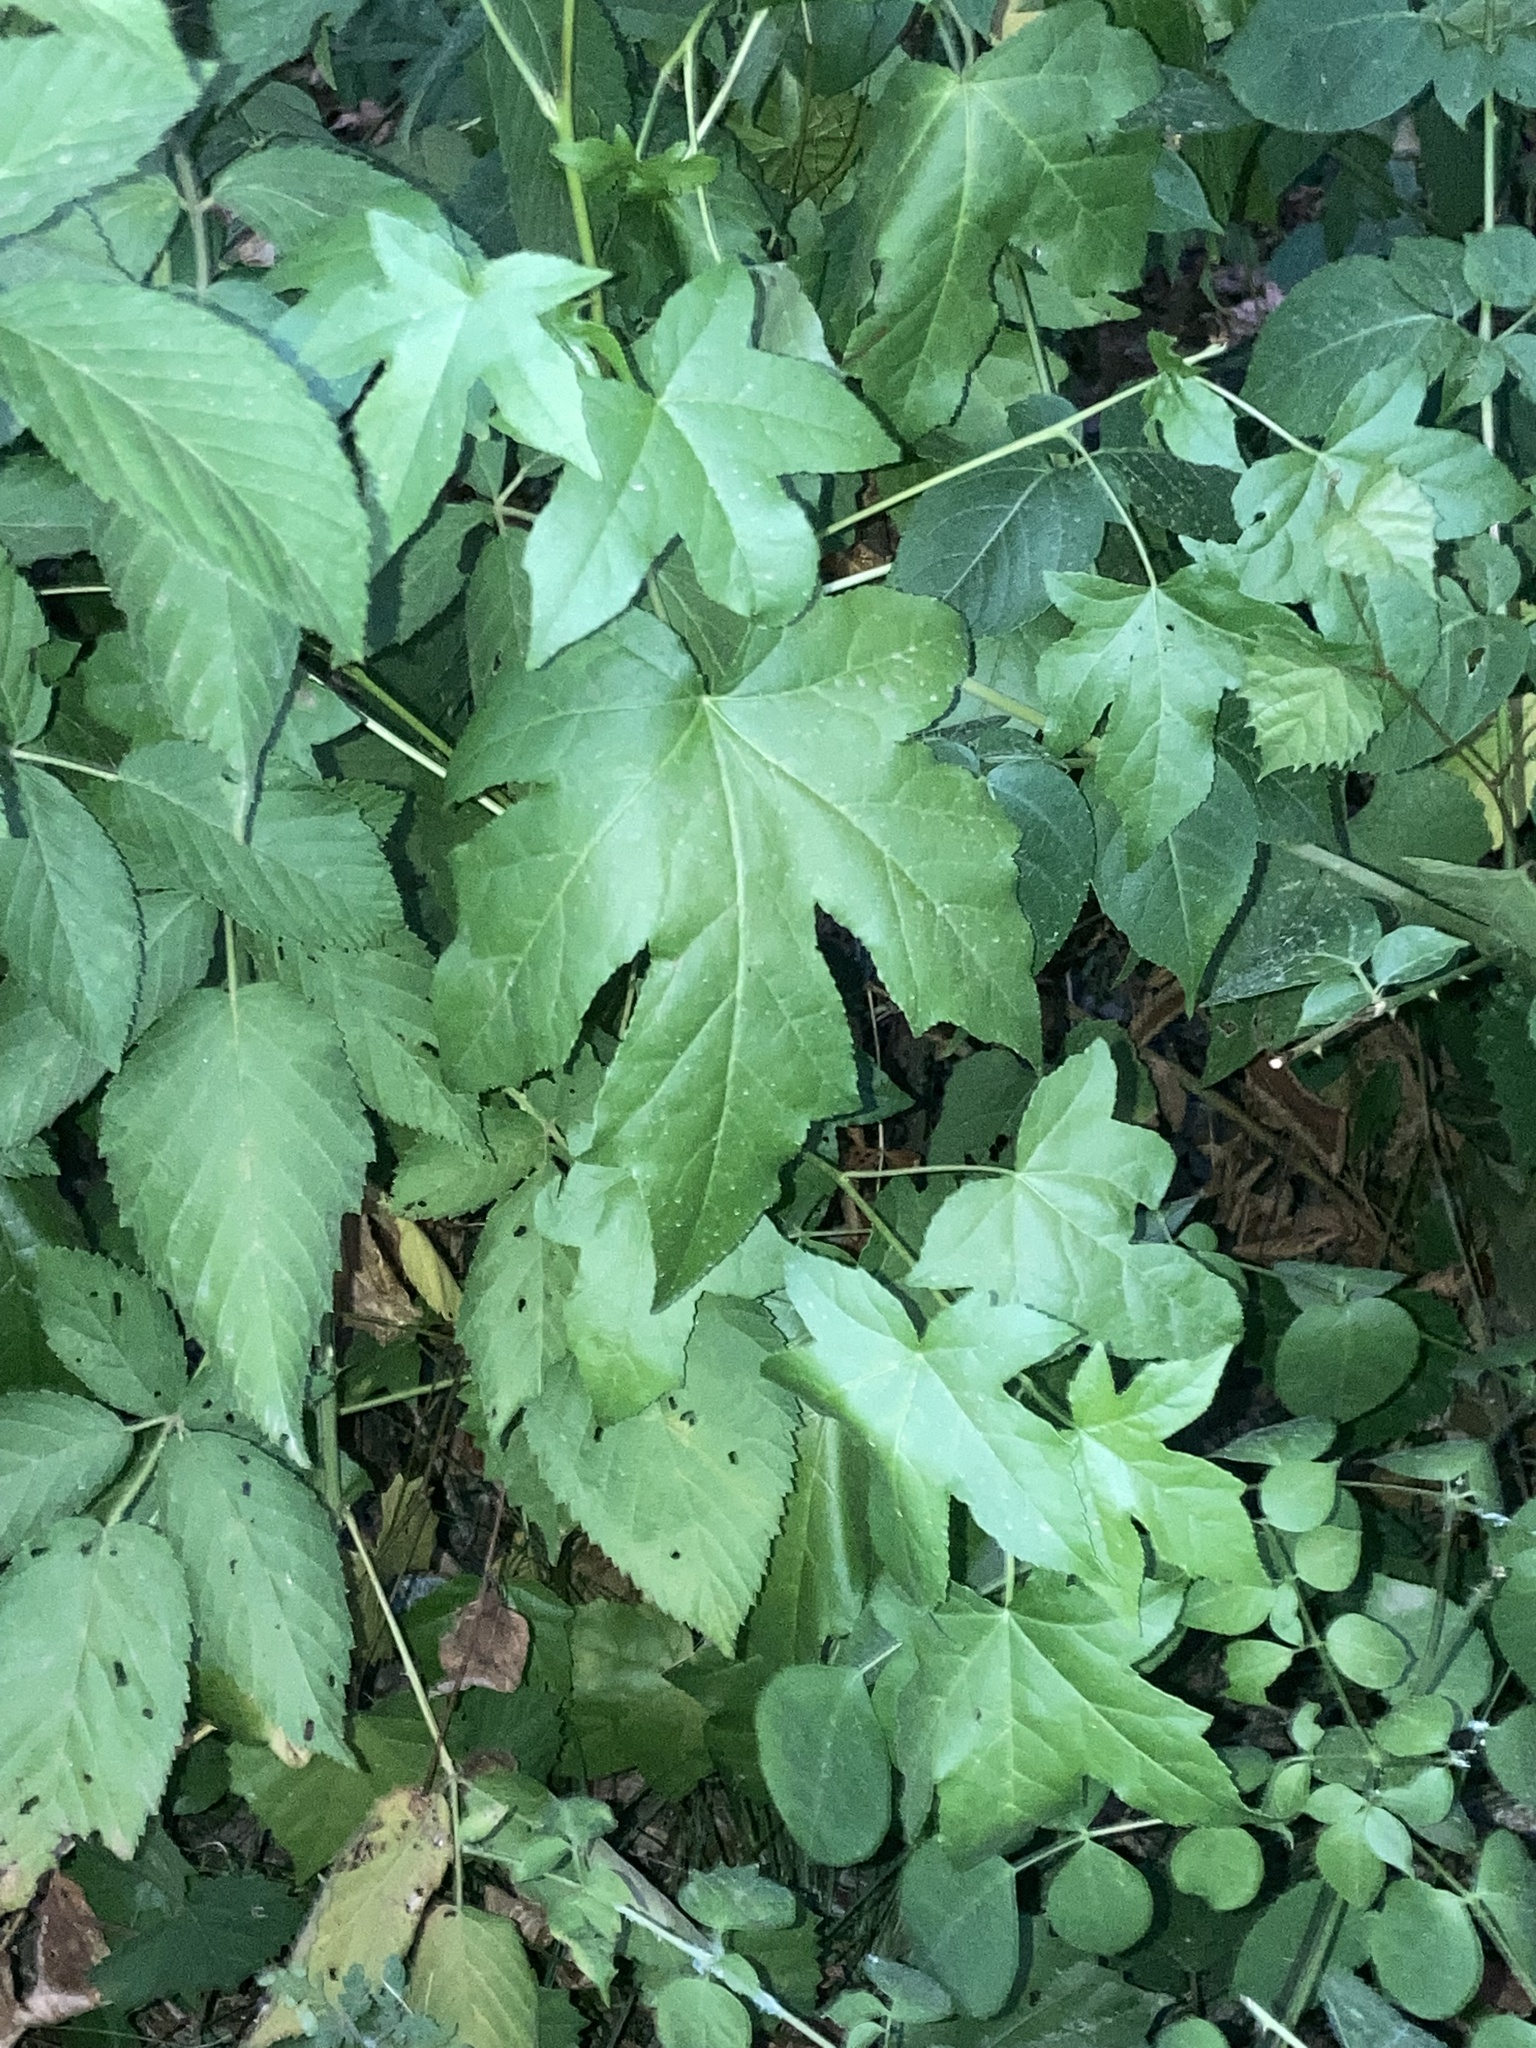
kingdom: Plantae
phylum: Tracheophyta
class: Magnoliopsida
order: Saxifragales
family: Altingiaceae
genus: Liquidambar
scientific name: Liquidambar styraciflua
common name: Sweet gum
